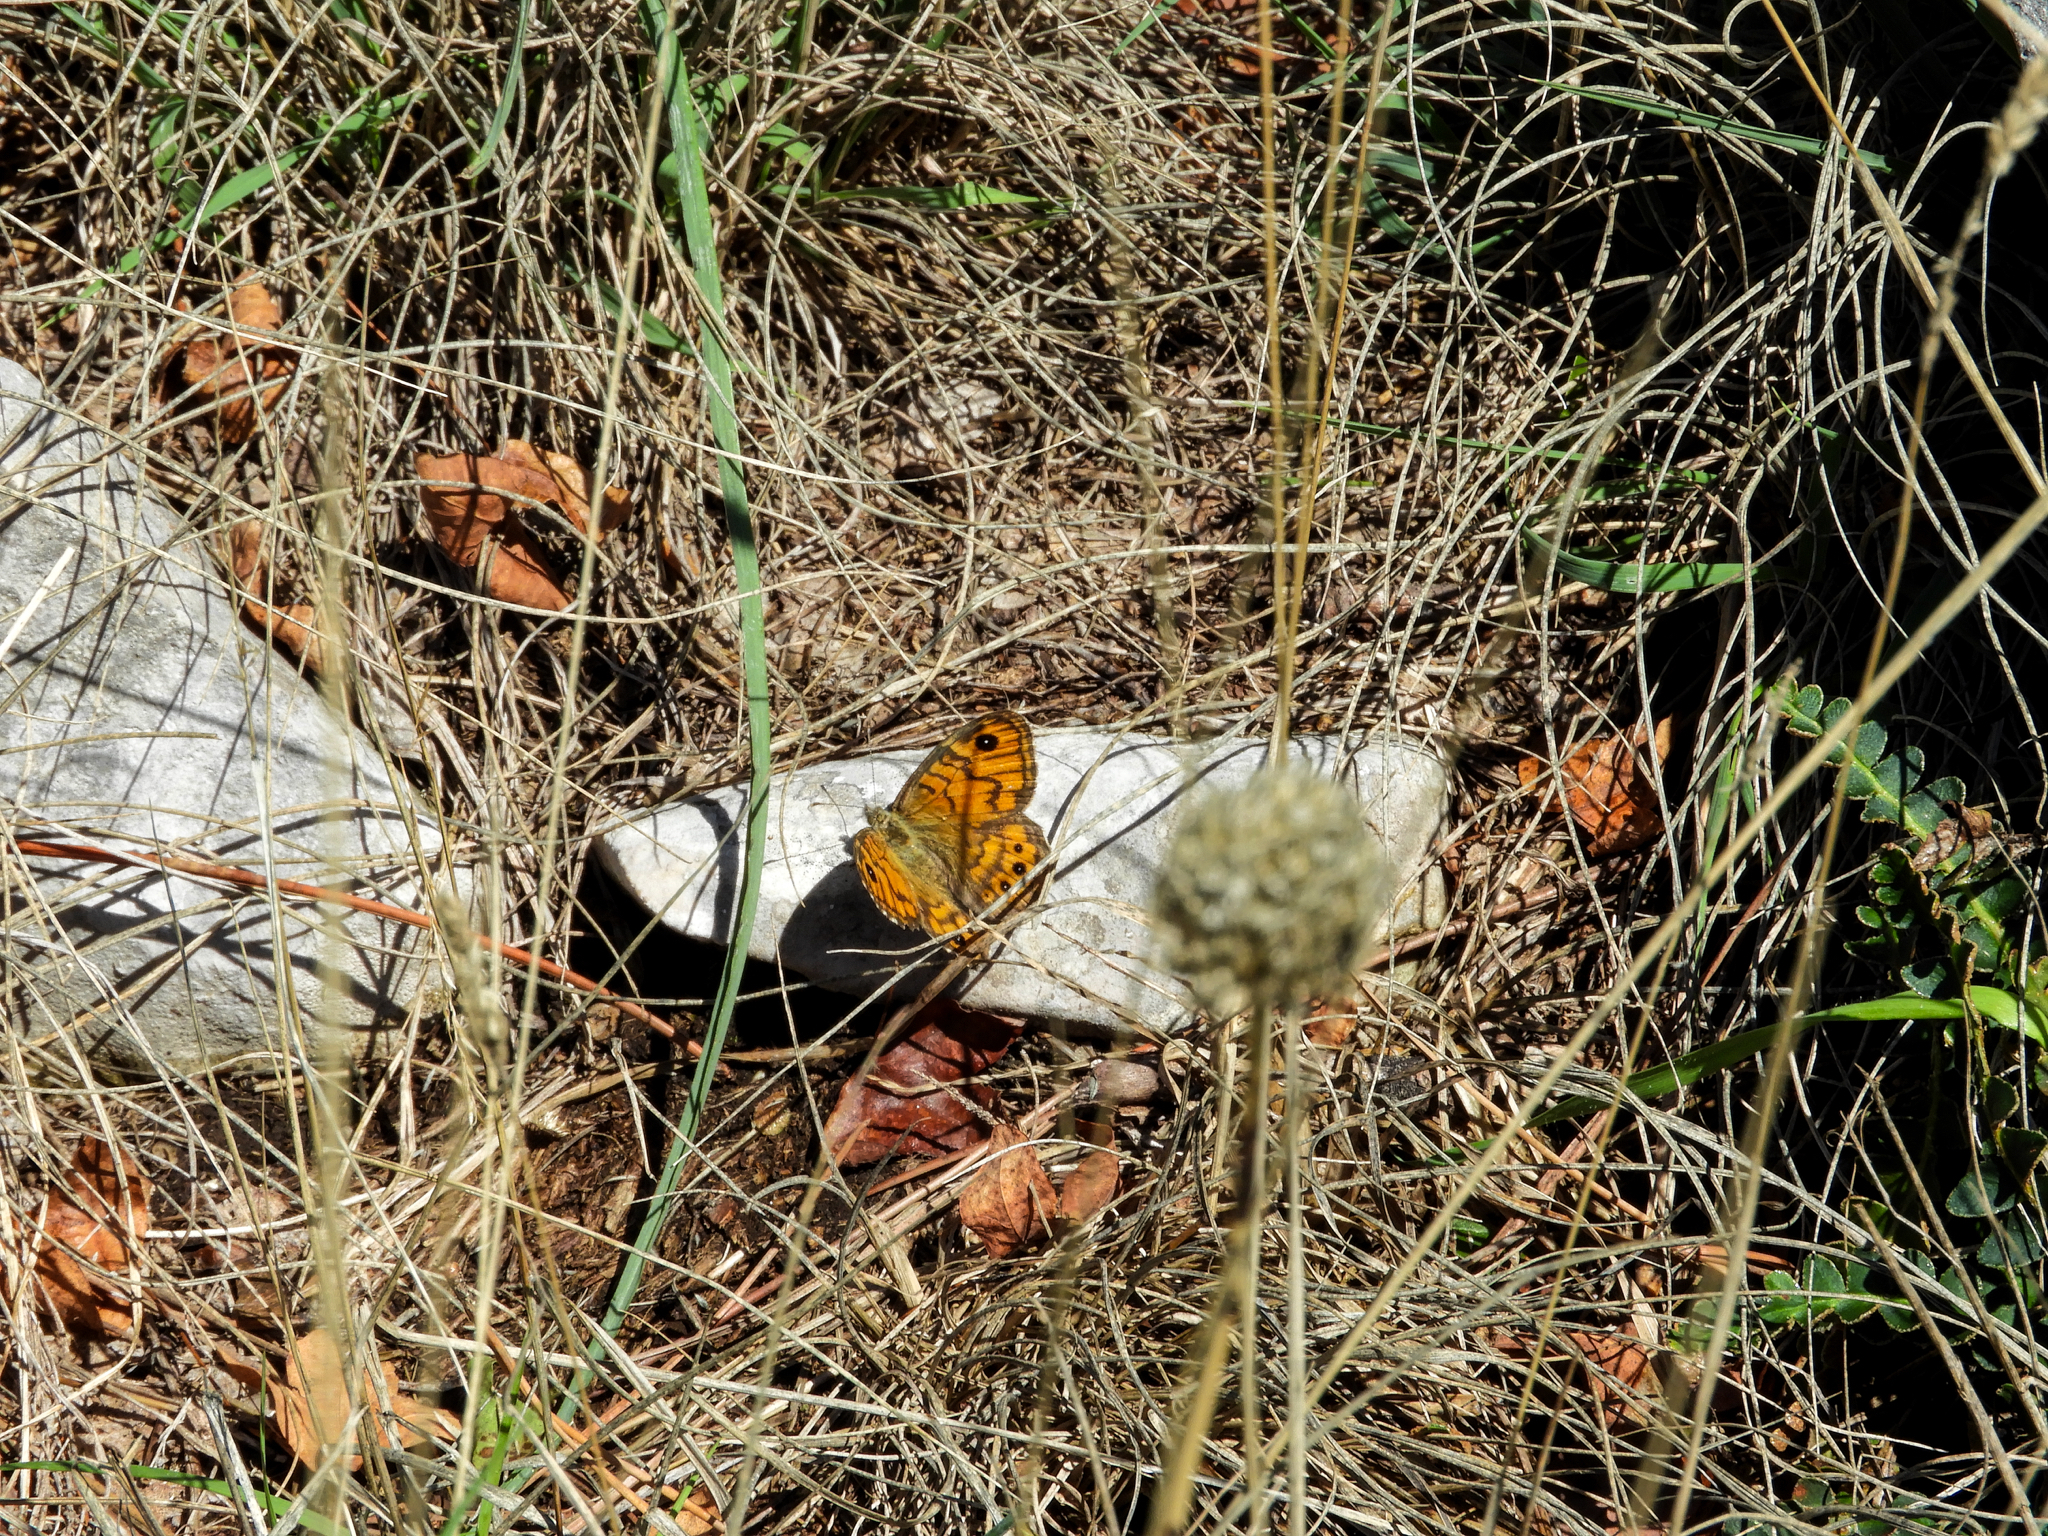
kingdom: Animalia
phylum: Arthropoda
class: Insecta
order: Lepidoptera
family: Nymphalidae
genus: Pararge
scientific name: Pararge Lasiommata megera
